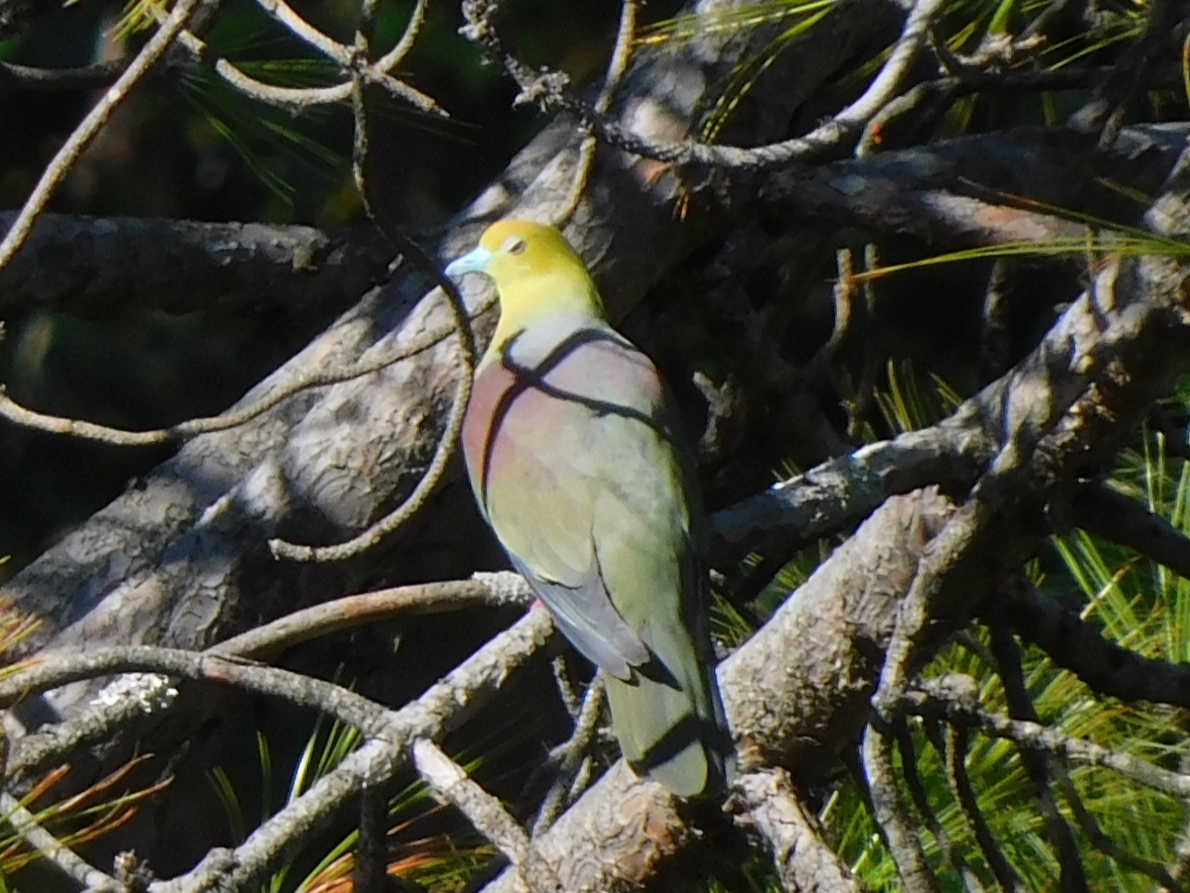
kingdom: Animalia
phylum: Chordata
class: Aves
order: Columbiformes
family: Columbidae
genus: Treron
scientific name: Treron sphenurus
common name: Wedge-tailed green pigeon
